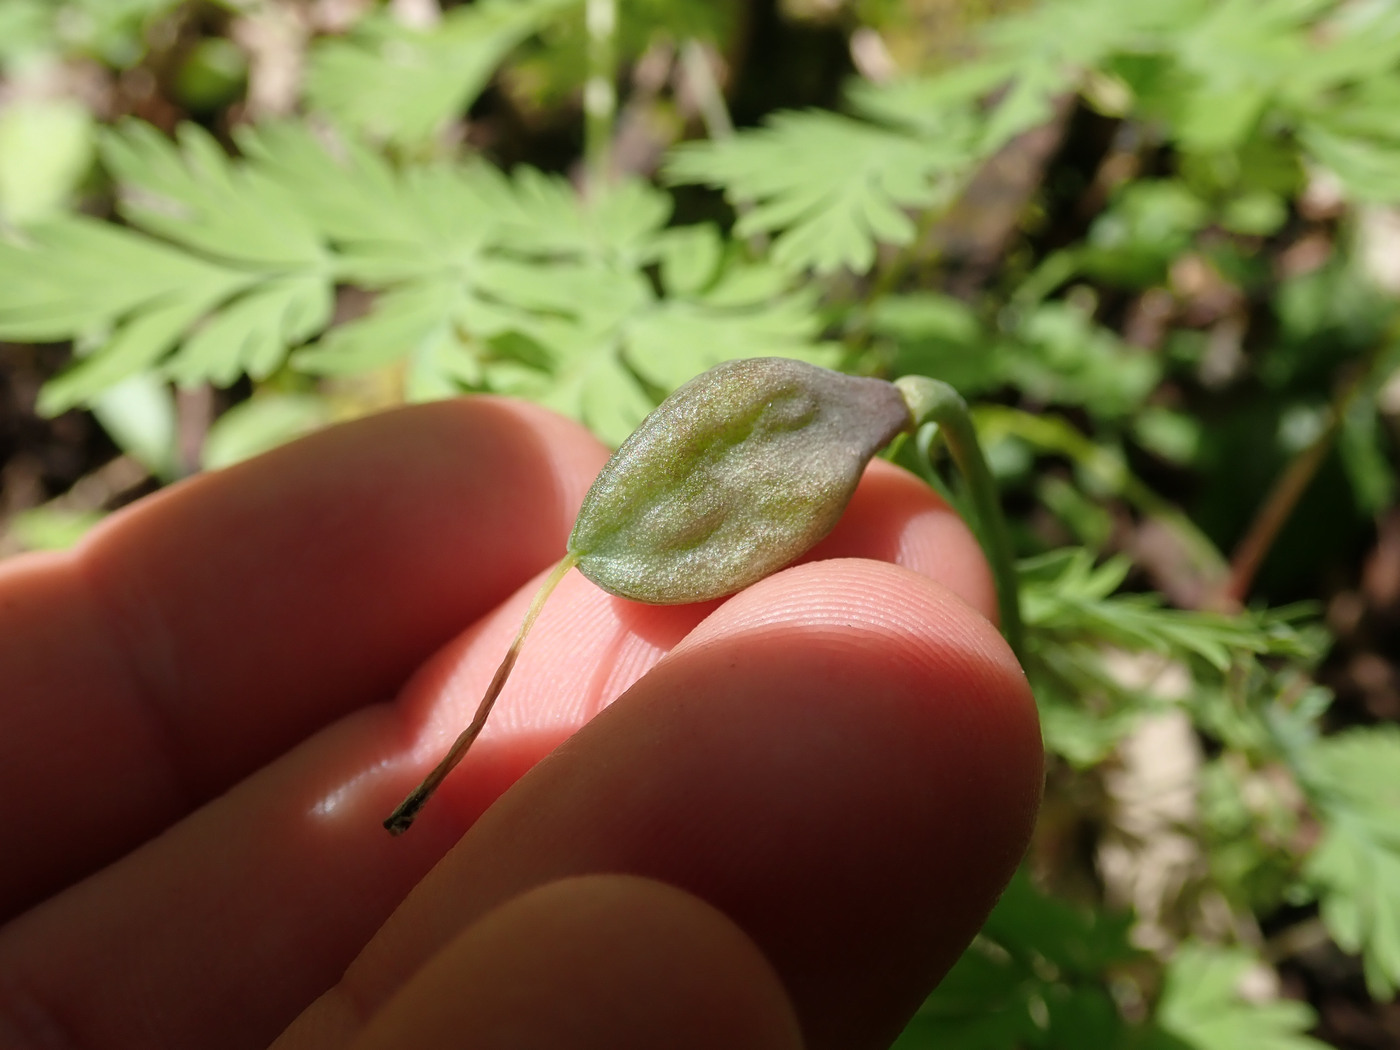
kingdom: Plantae
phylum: Tracheophyta
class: Liliopsida
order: Liliales
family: Liliaceae
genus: Erythronium
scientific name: Erythronium americanum
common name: Yellow adder's-tongue
